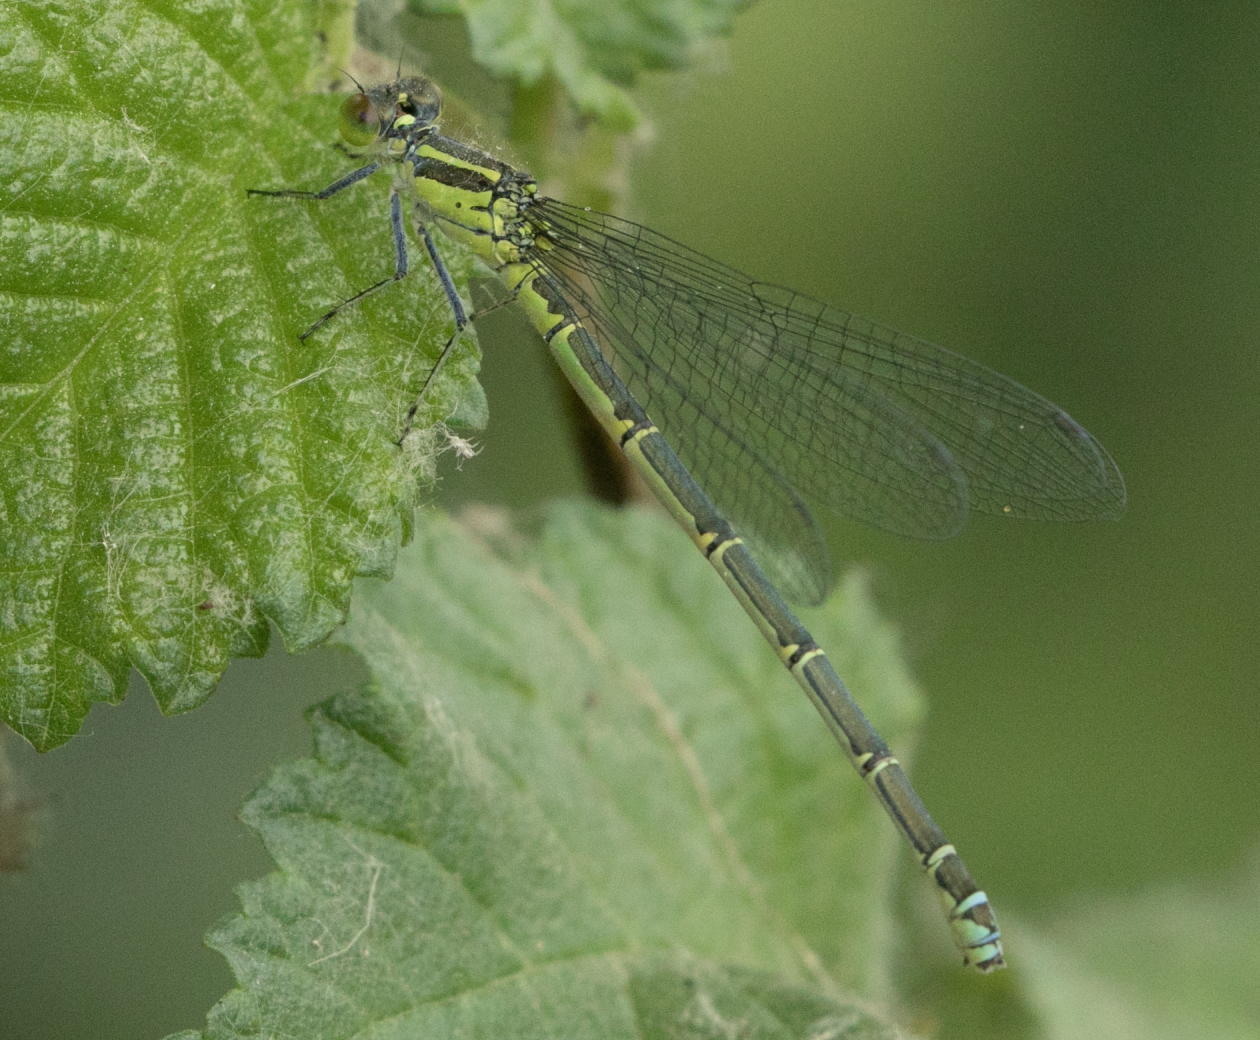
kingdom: Animalia
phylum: Arthropoda
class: Insecta
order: Odonata
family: Coenagrionidae
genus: Erythromma
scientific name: Erythromma viridulum
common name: Small red-eyed damselfly
